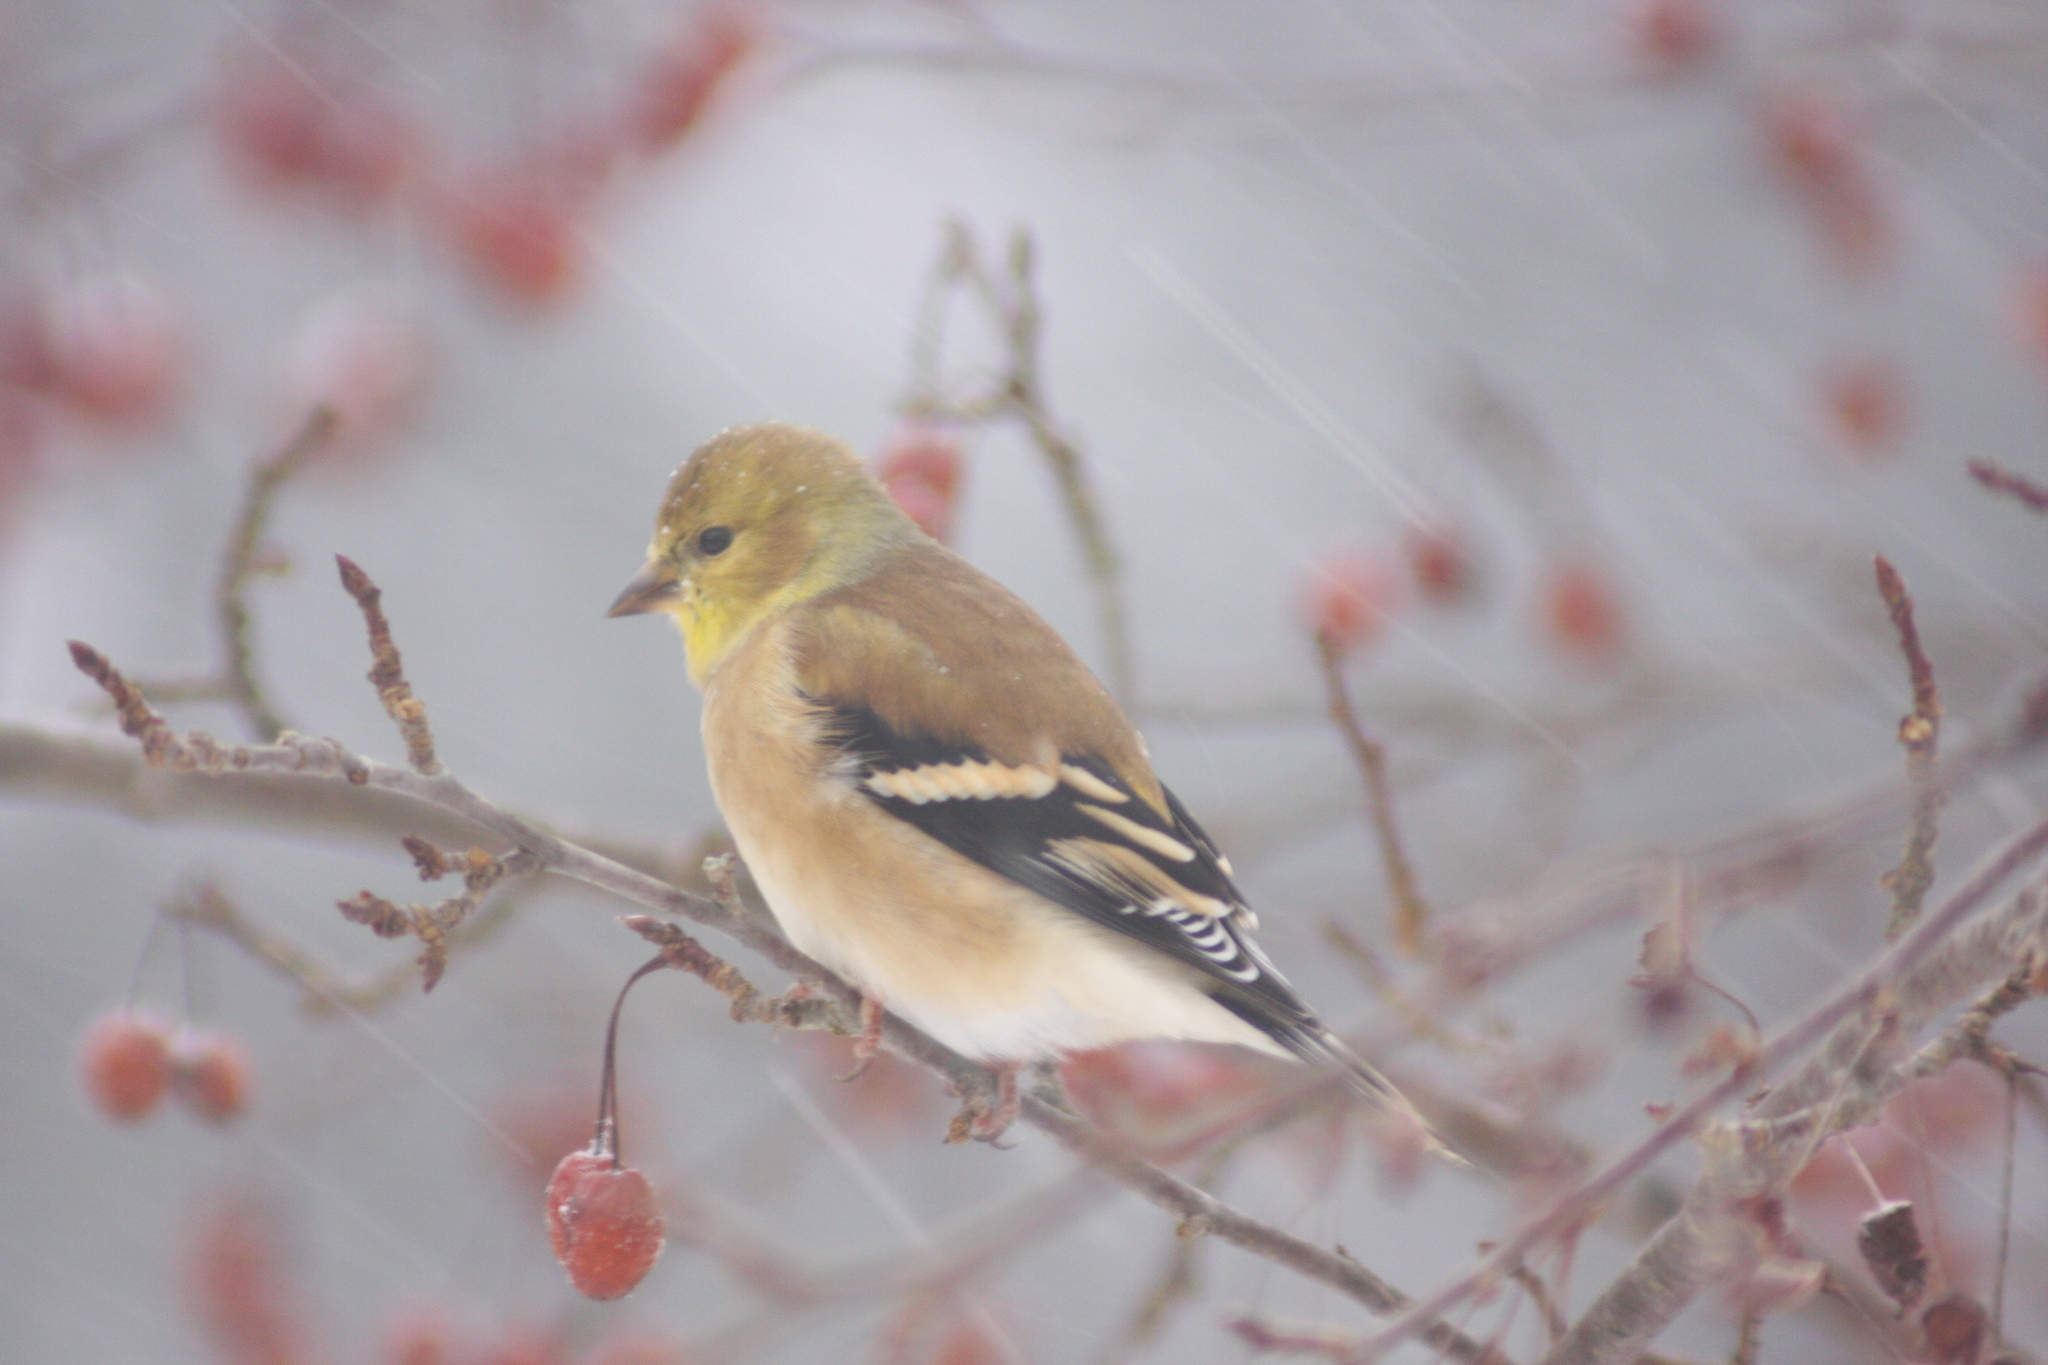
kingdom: Animalia
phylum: Chordata
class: Aves
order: Passeriformes
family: Fringillidae
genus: Spinus
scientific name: Spinus tristis
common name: American goldfinch
